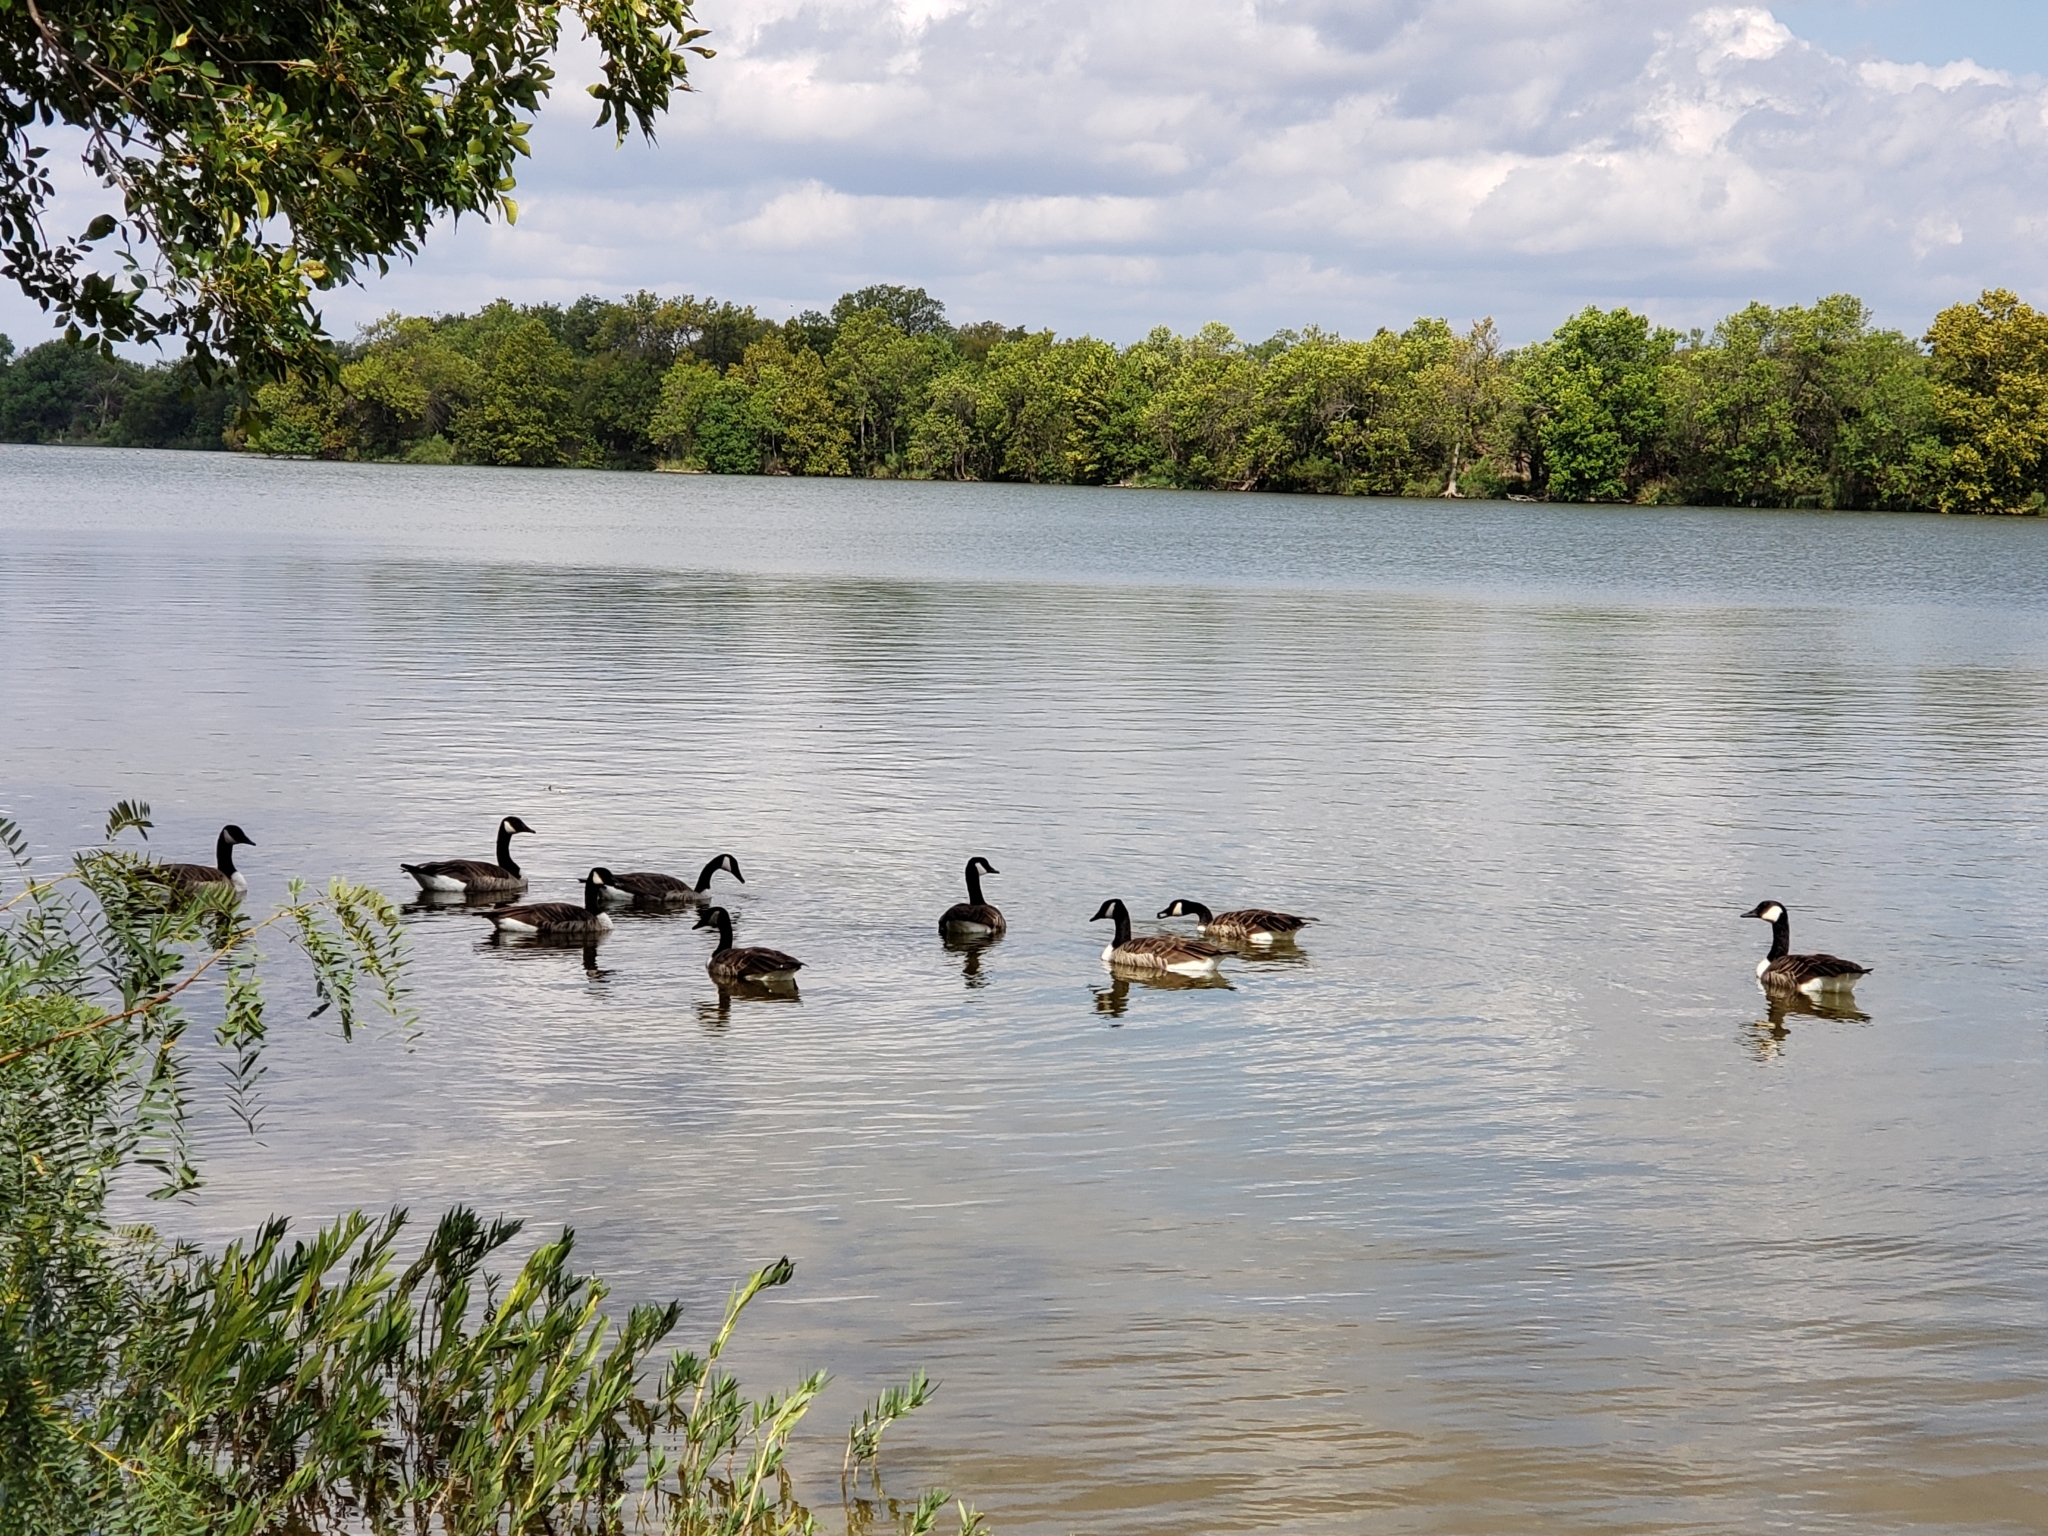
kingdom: Animalia
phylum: Chordata
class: Aves
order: Anseriformes
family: Anatidae
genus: Branta
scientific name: Branta canadensis
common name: Canada goose
